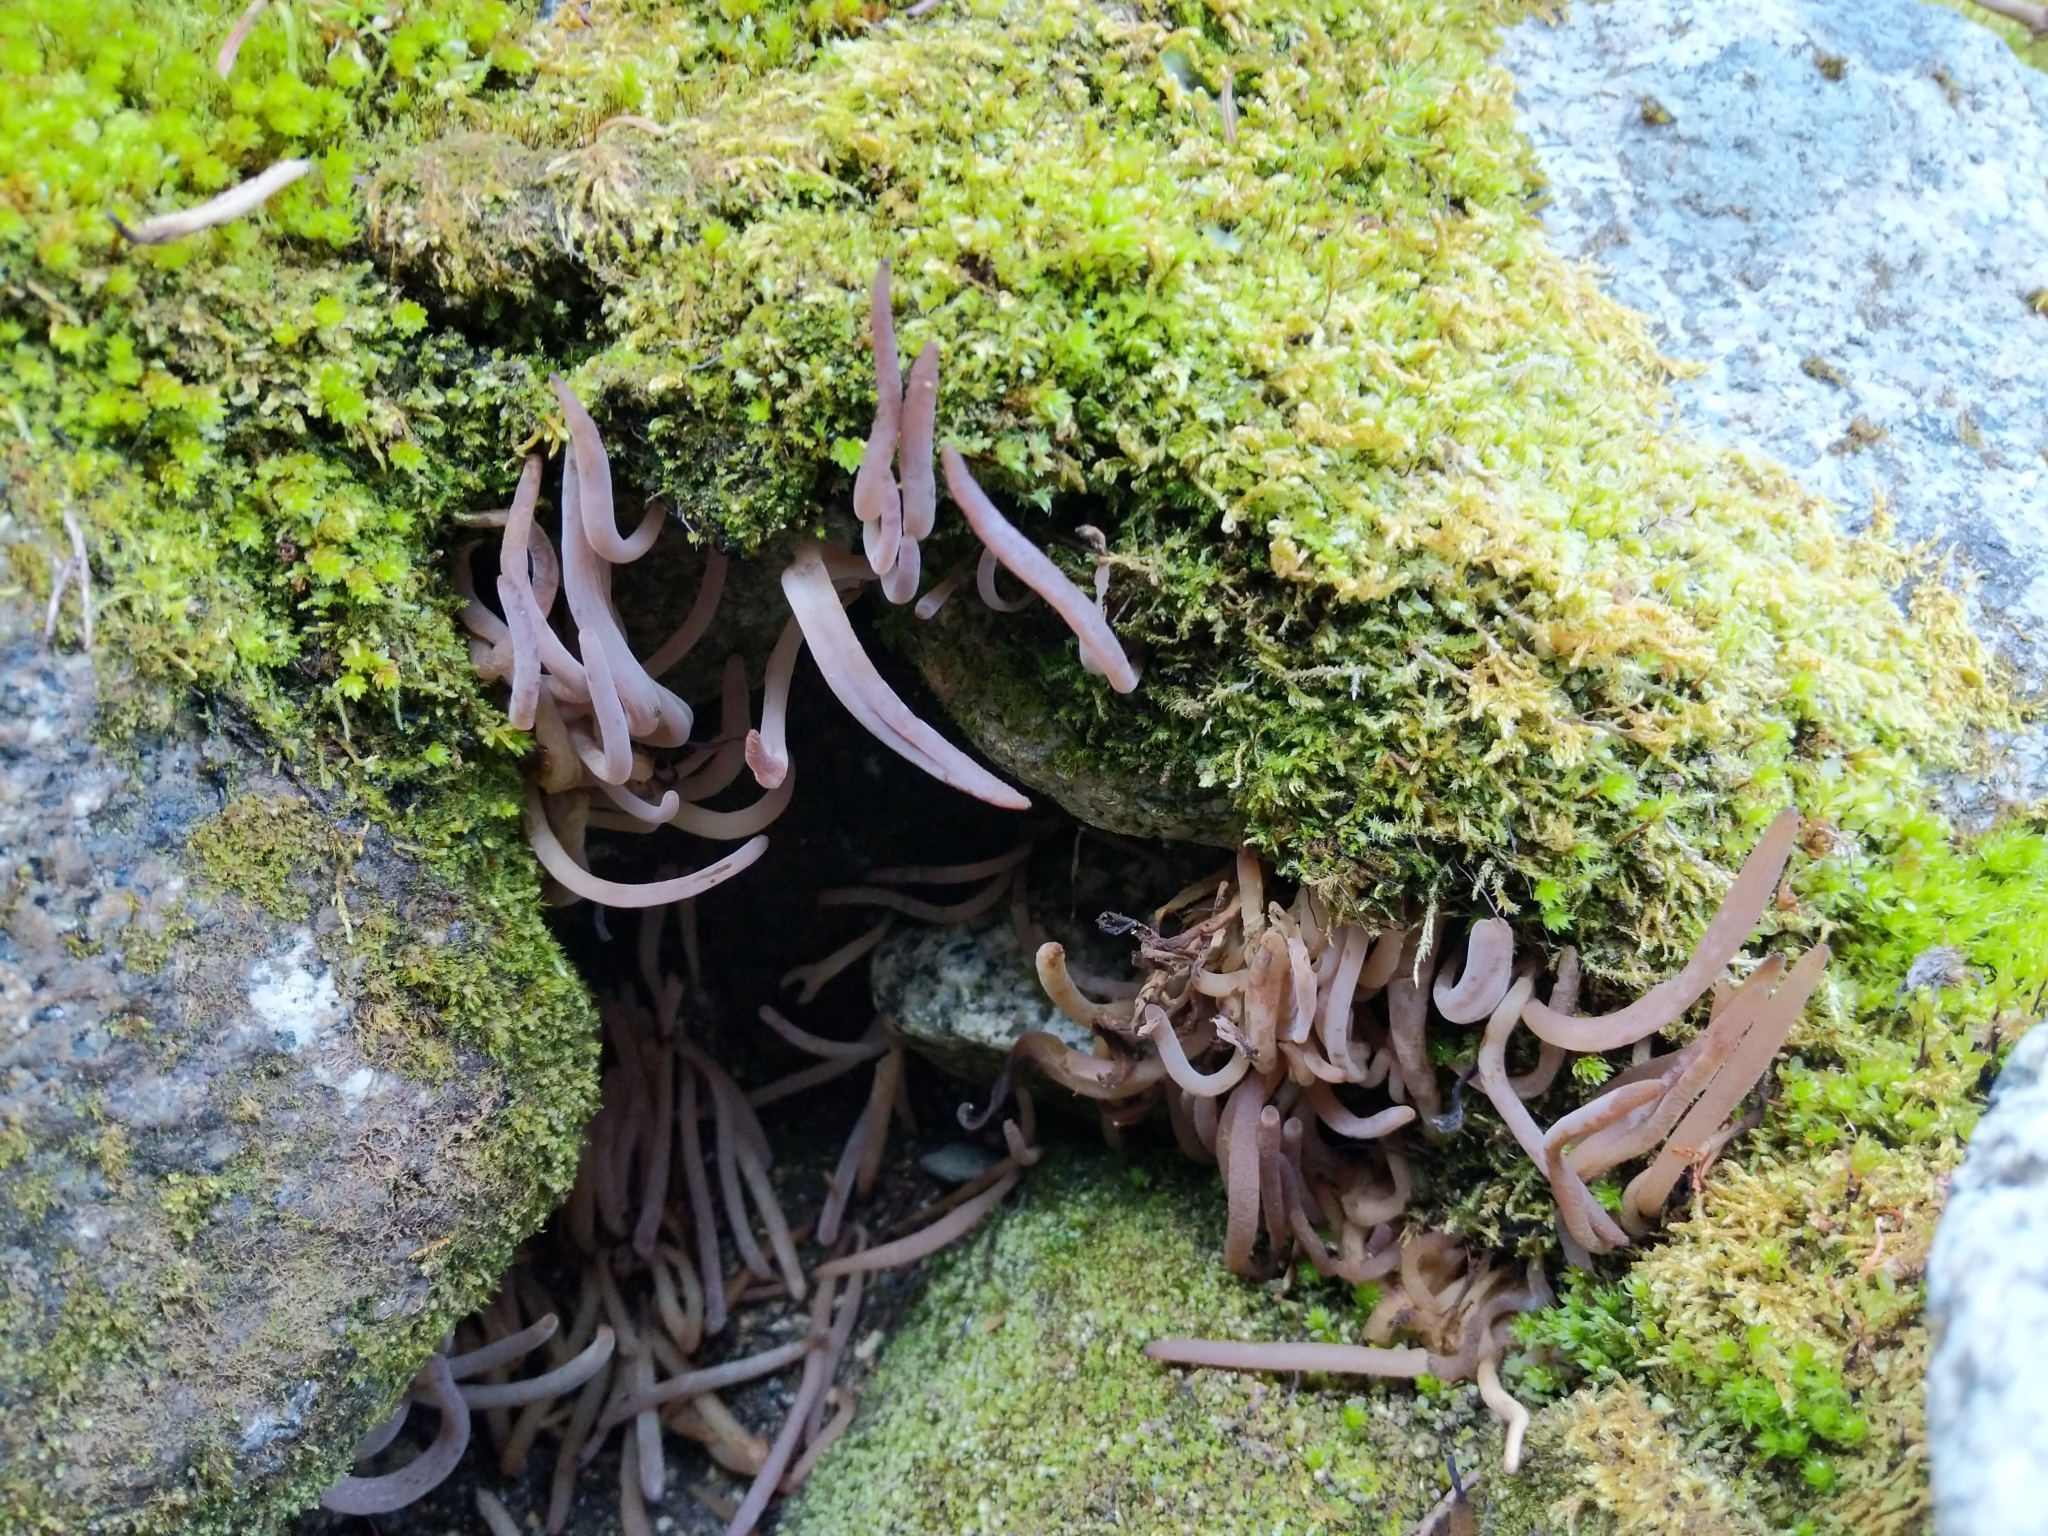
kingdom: Fungi
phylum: Basidiomycota
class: Agaricomycetes
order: Hymenochaetales
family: Rickenellaceae
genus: Alloclavaria
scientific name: Alloclavaria purpurea
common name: Purple spindles
